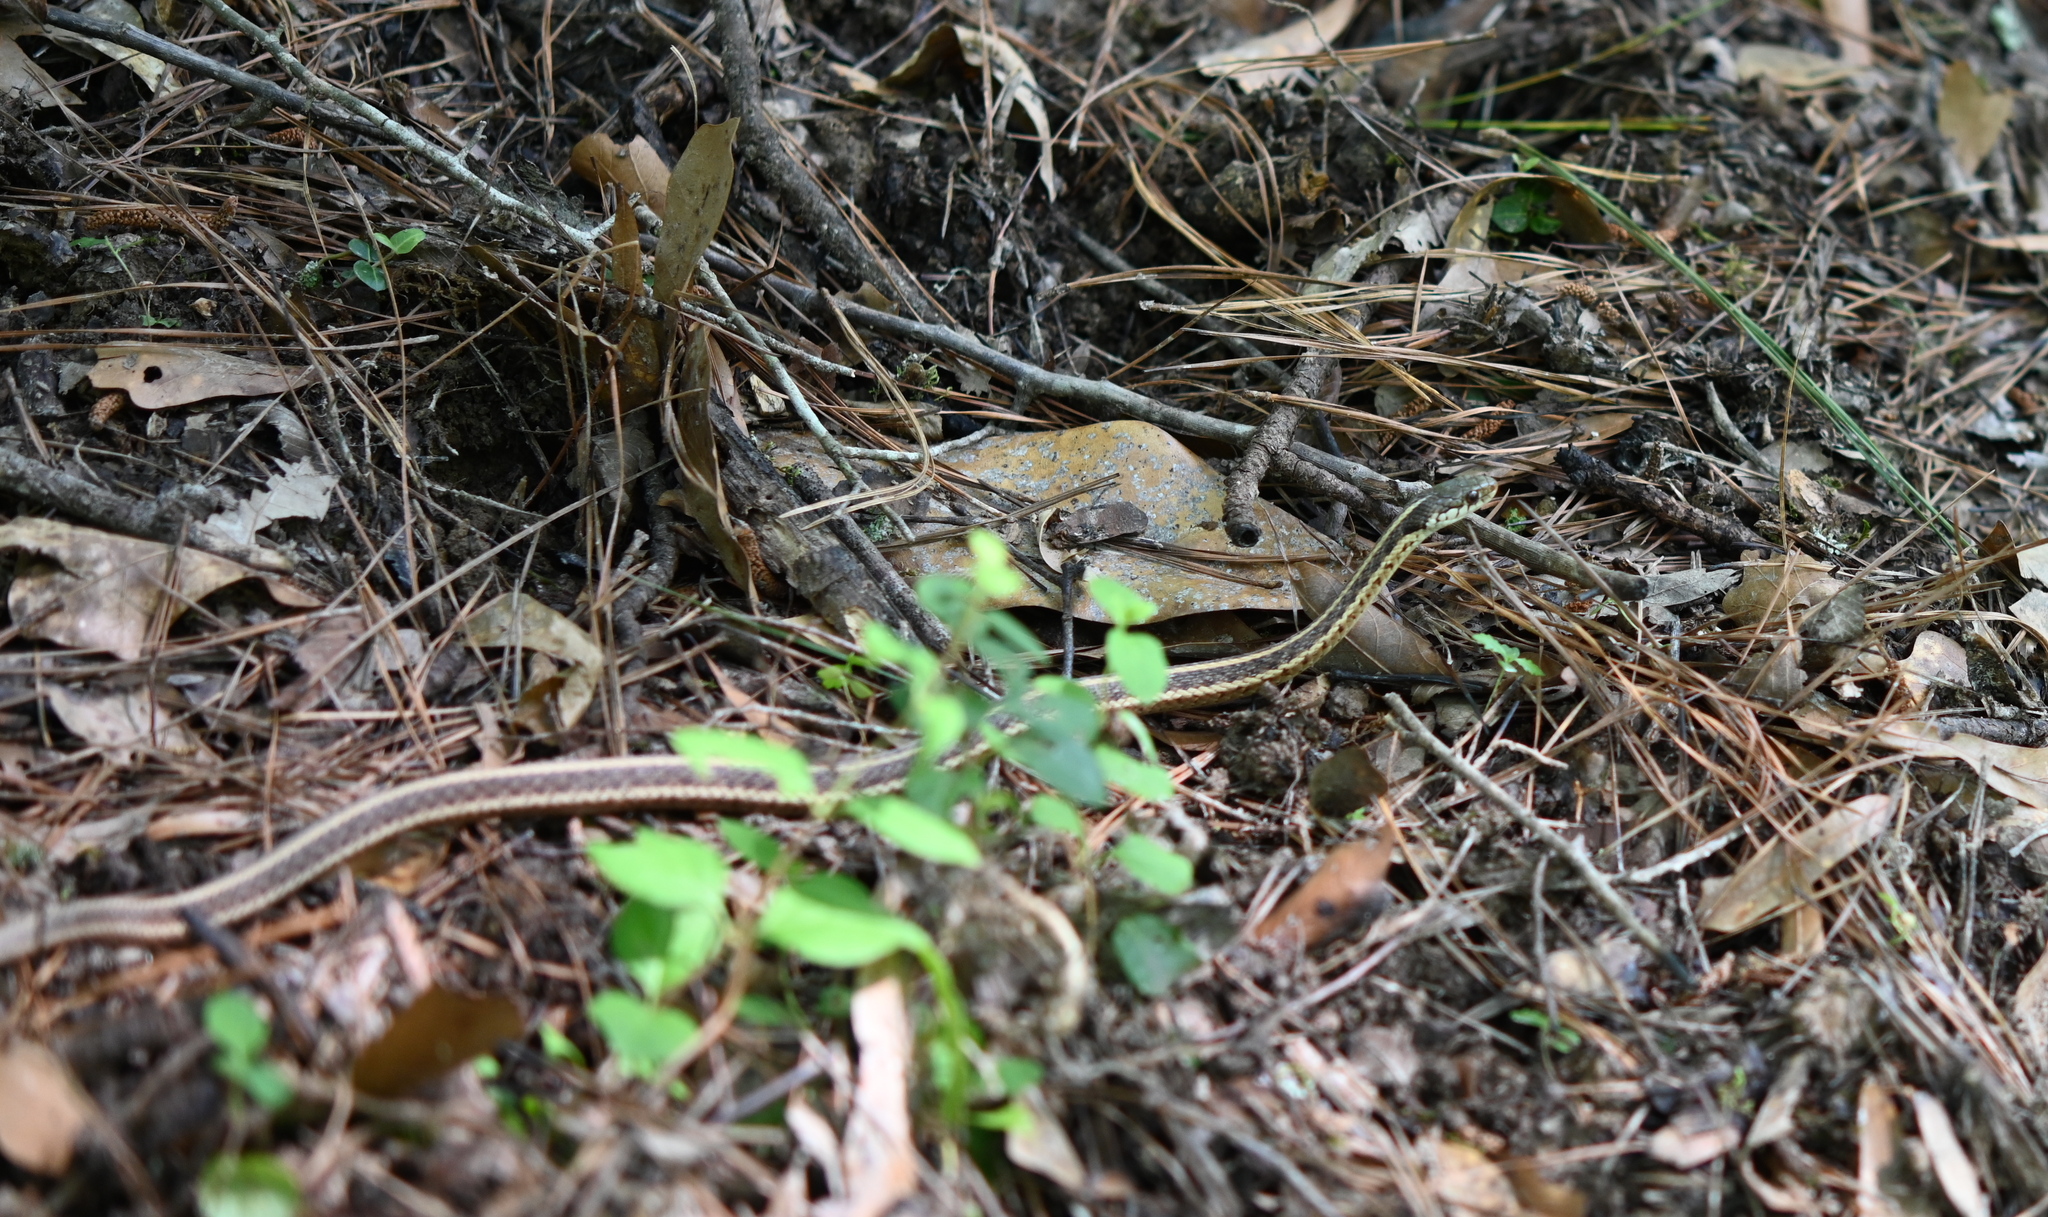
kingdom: Animalia
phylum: Chordata
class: Squamata
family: Colubridae
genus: Thamnophis
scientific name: Thamnophis sirtalis
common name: Common garter snake
